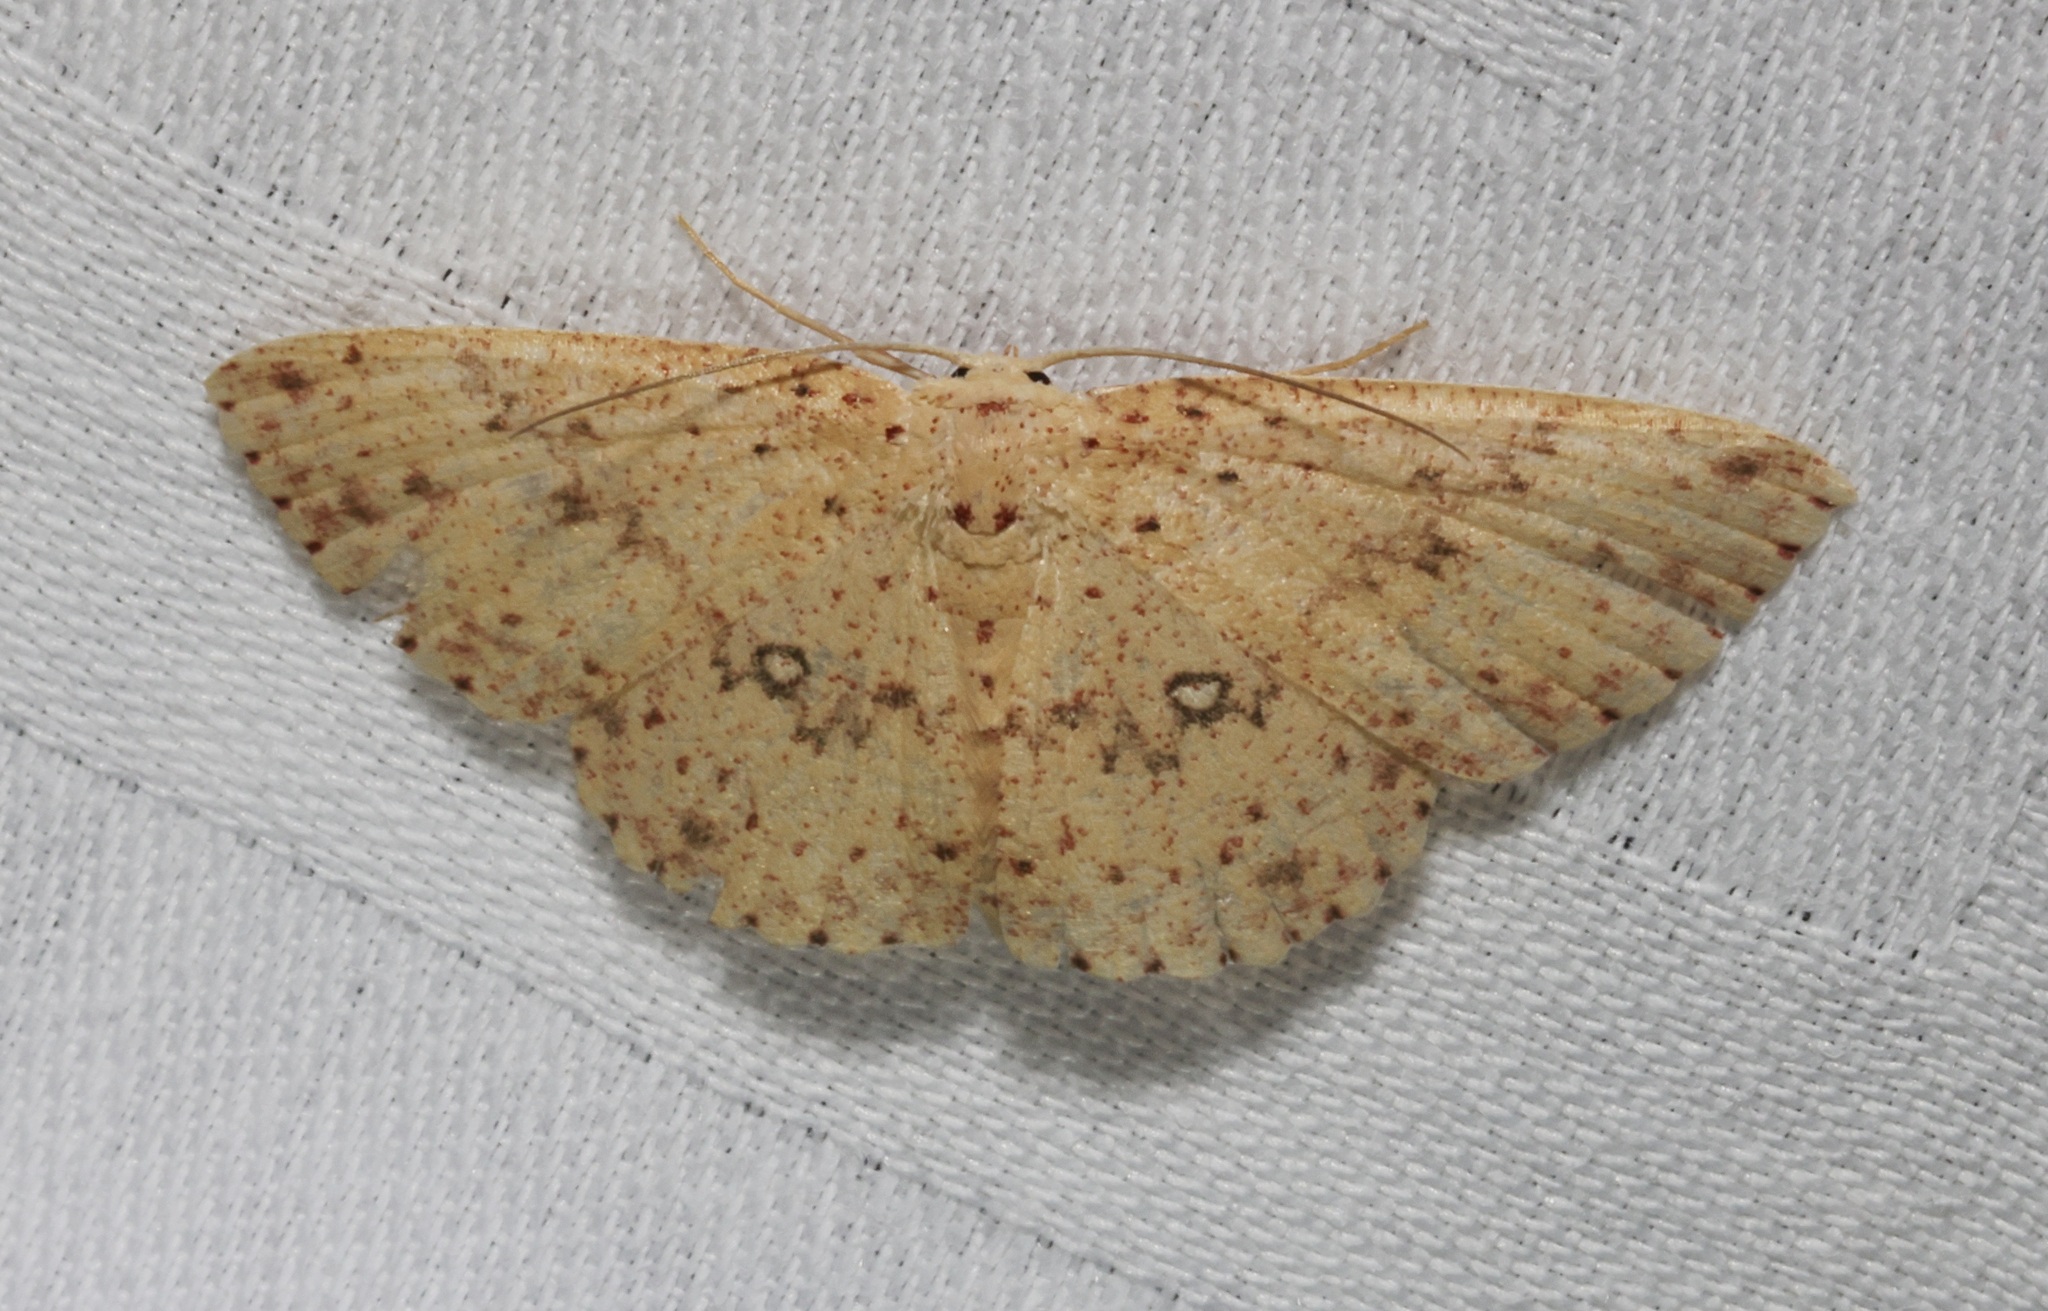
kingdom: Animalia
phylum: Arthropoda
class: Insecta
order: Lepidoptera
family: Geometridae
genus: Perixera
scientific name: Perixera decretarioides
